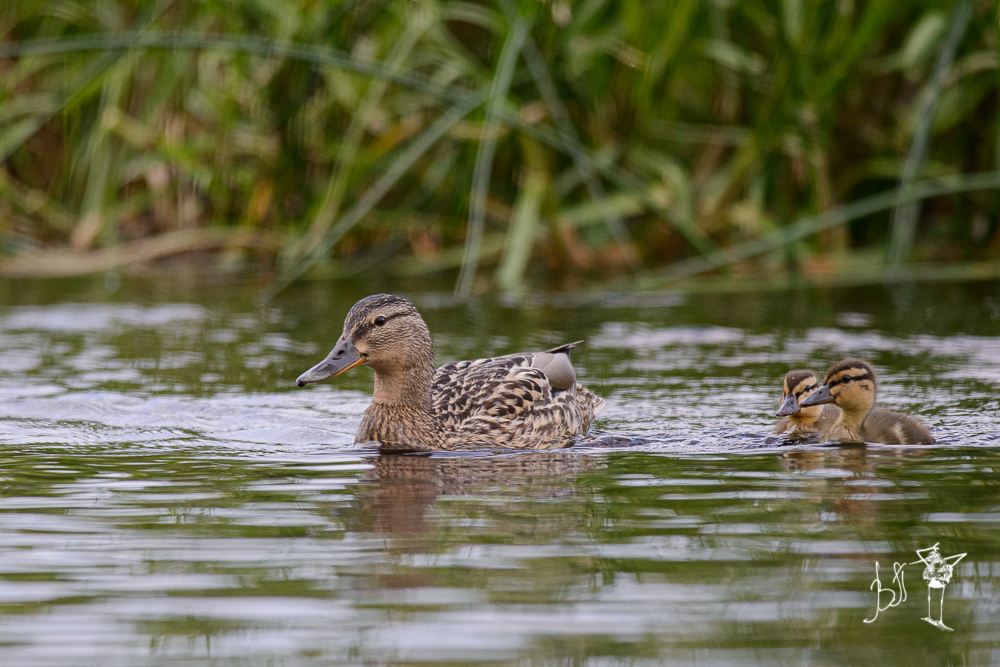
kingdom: Animalia
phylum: Chordata
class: Aves
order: Anseriformes
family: Anatidae
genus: Anas
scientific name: Anas platyrhynchos
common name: Mallard
